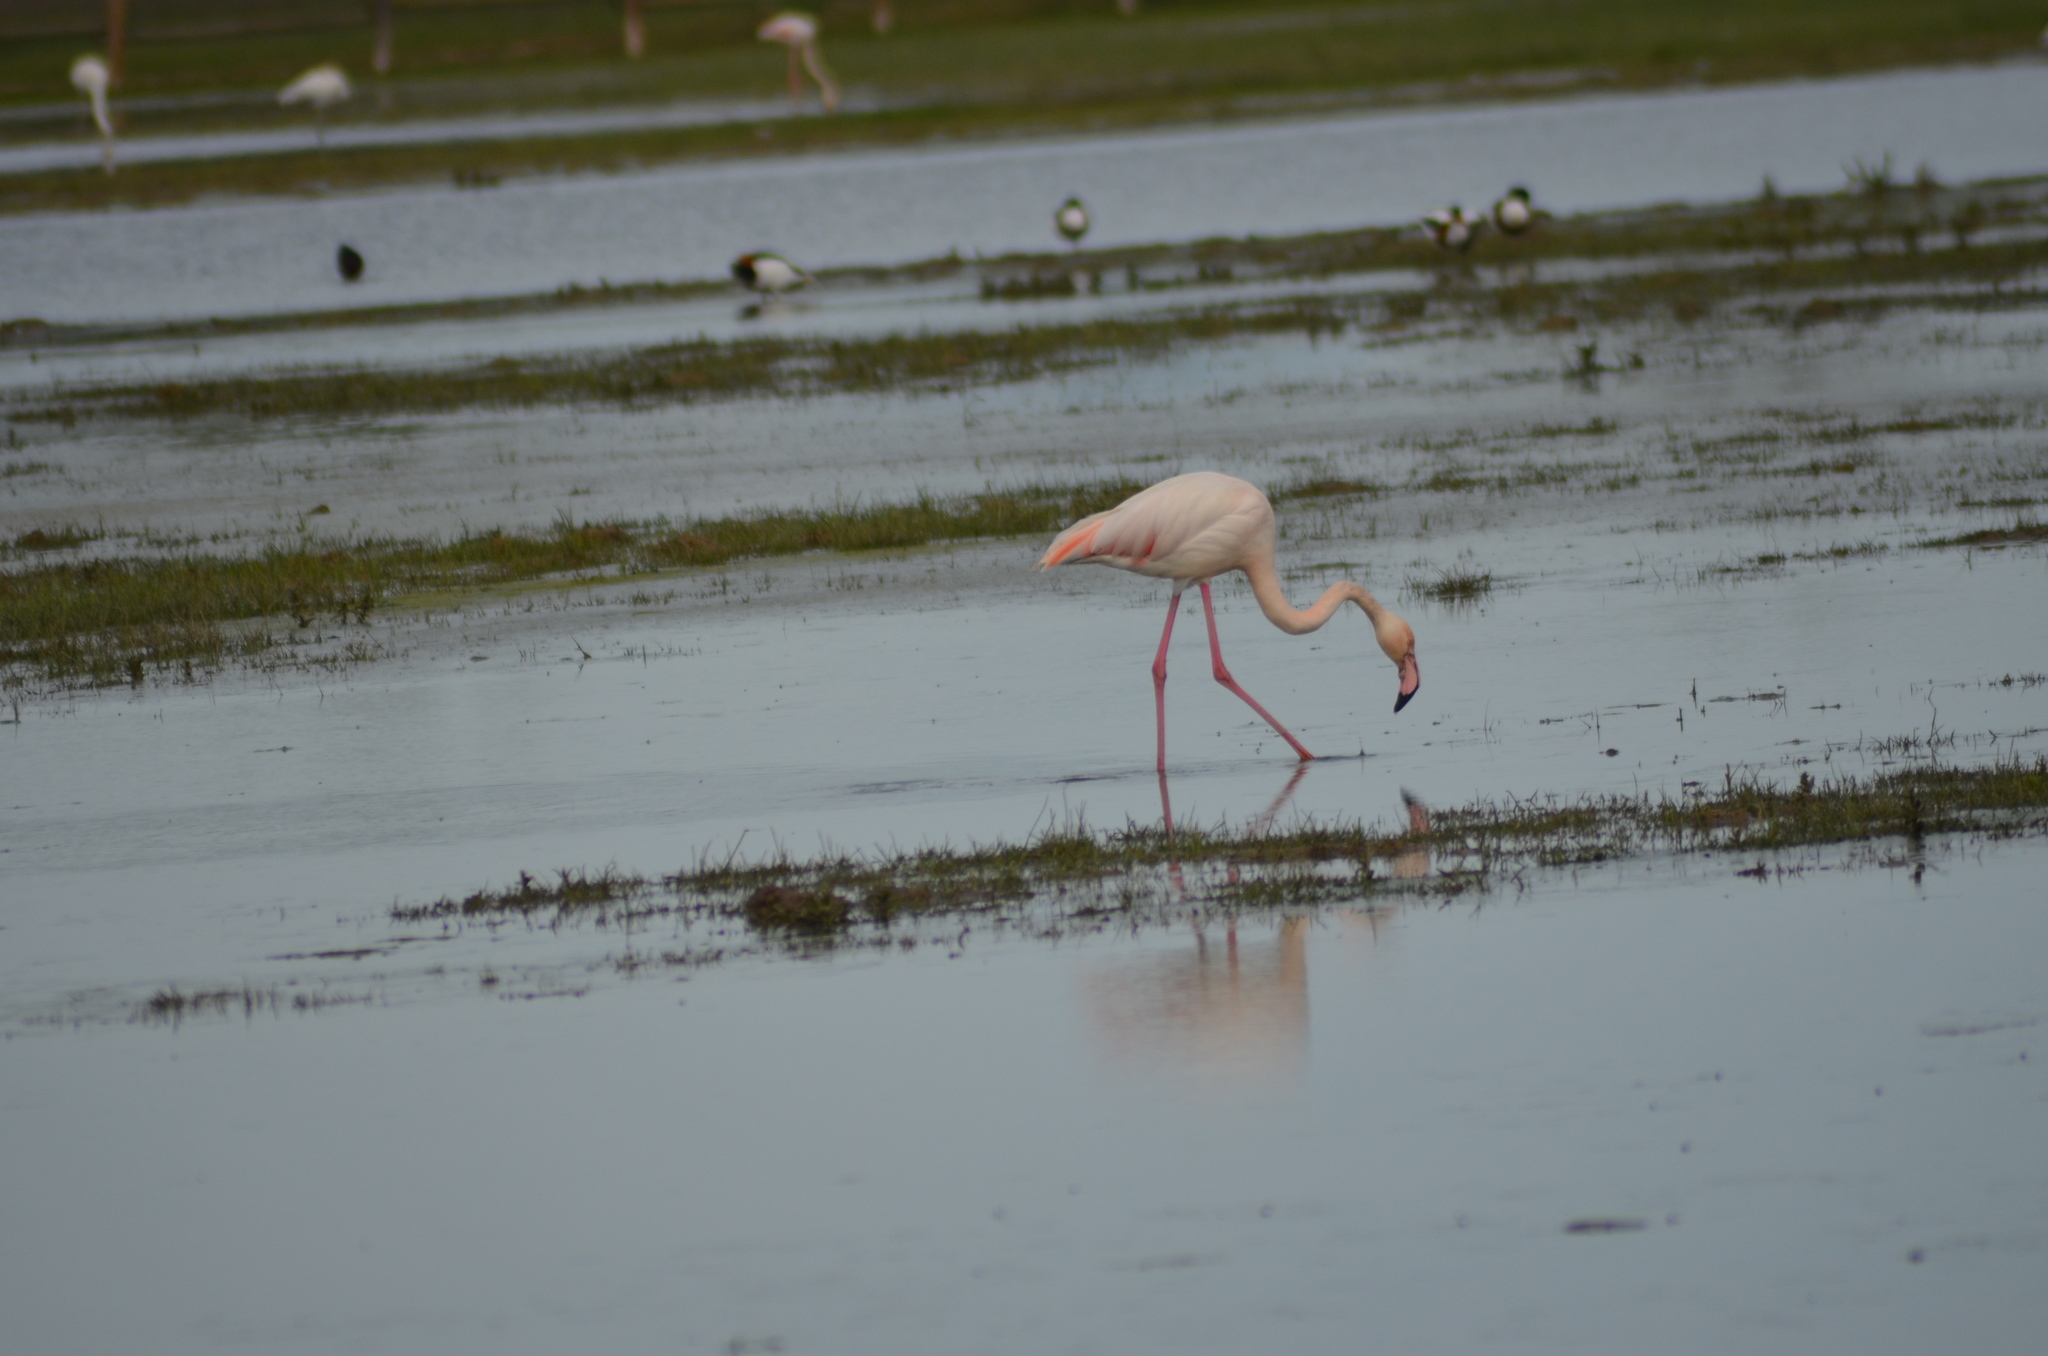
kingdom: Animalia
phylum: Chordata
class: Aves
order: Phoenicopteriformes
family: Phoenicopteridae
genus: Phoenicopterus
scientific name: Phoenicopterus roseus
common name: Greater flamingo
